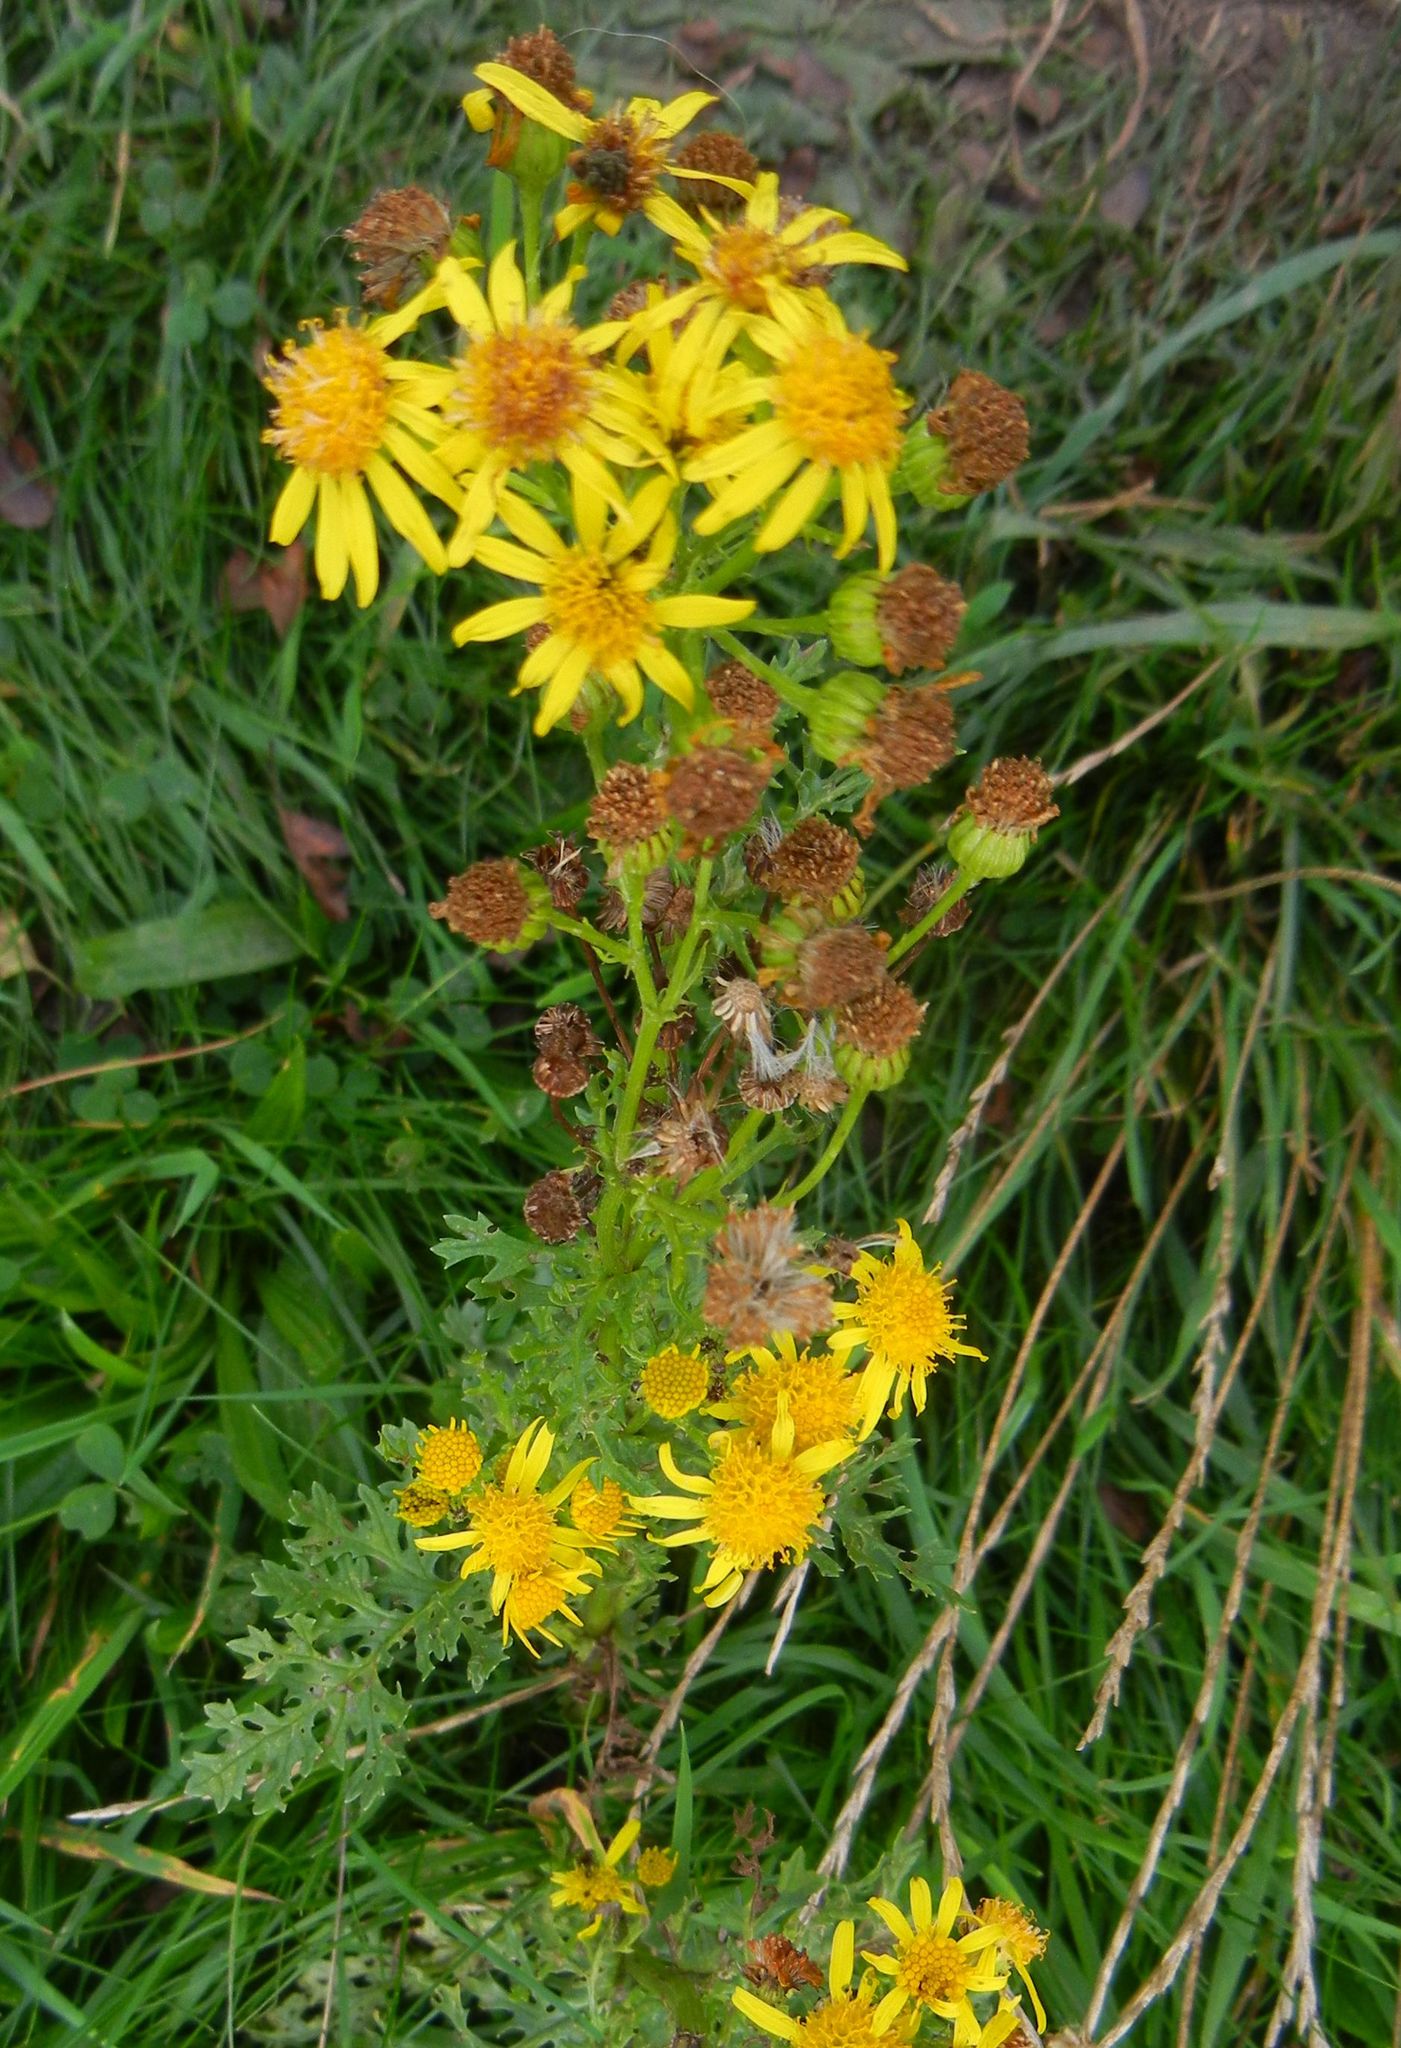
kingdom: Plantae
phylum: Tracheophyta
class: Magnoliopsida
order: Asterales
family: Asteraceae
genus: Jacobaea
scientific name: Jacobaea vulgaris
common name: Stinking willie
